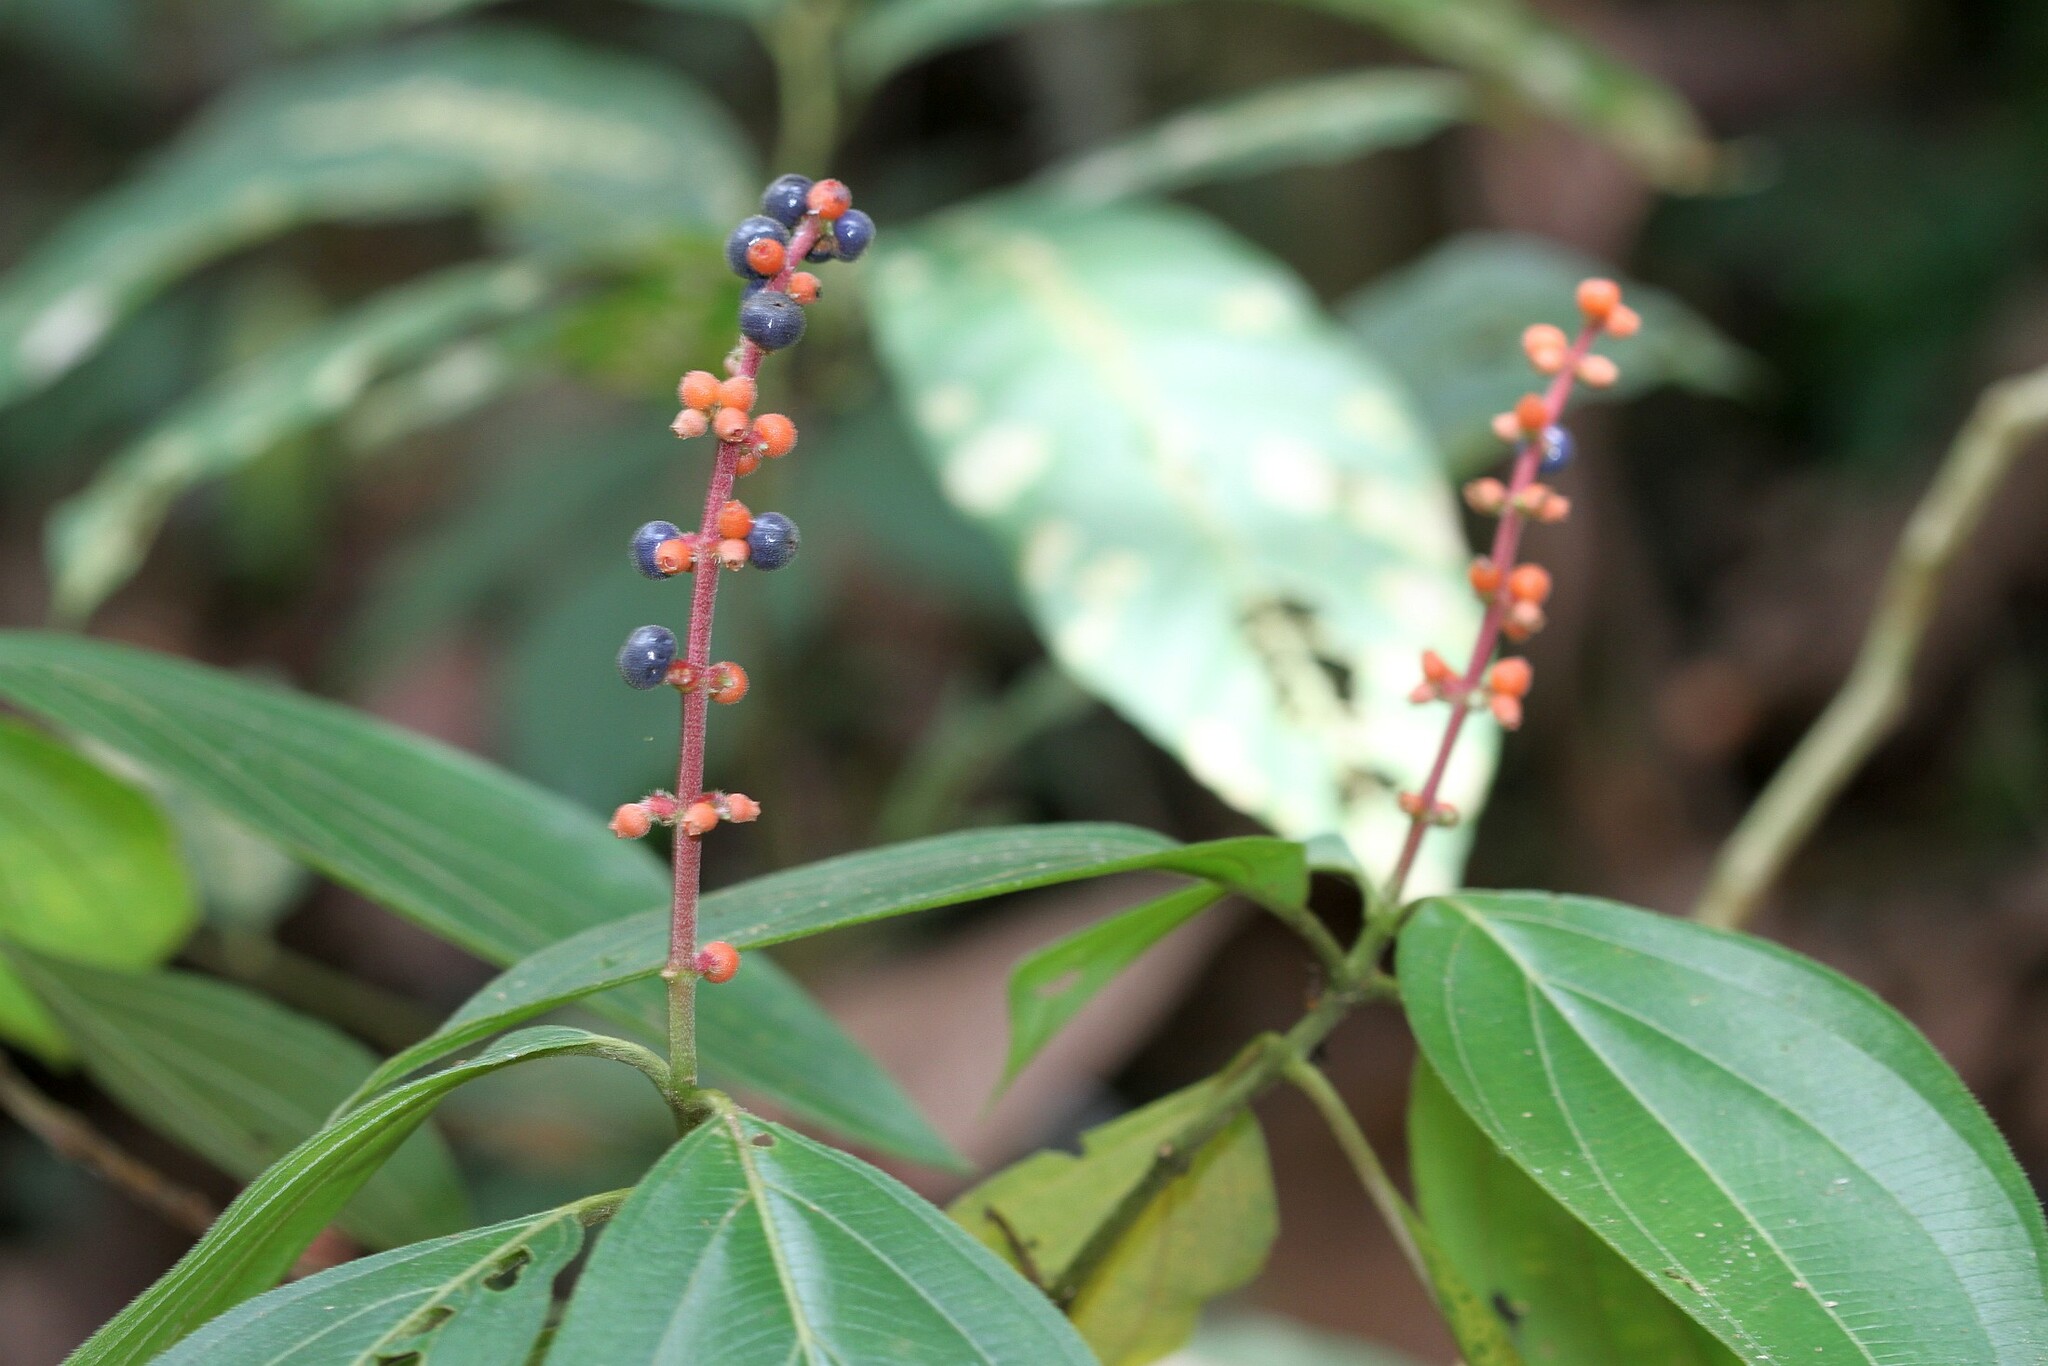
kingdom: Plantae
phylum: Tracheophyta
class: Magnoliopsida
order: Myrtales
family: Melastomataceae
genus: Miconia
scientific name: Miconia nervosa
